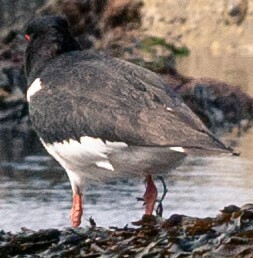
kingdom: Animalia
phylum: Chordata
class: Aves
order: Charadriiformes
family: Haematopodidae
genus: Haematopus
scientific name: Haematopus ostralegus
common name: Eurasian oystercatcher
